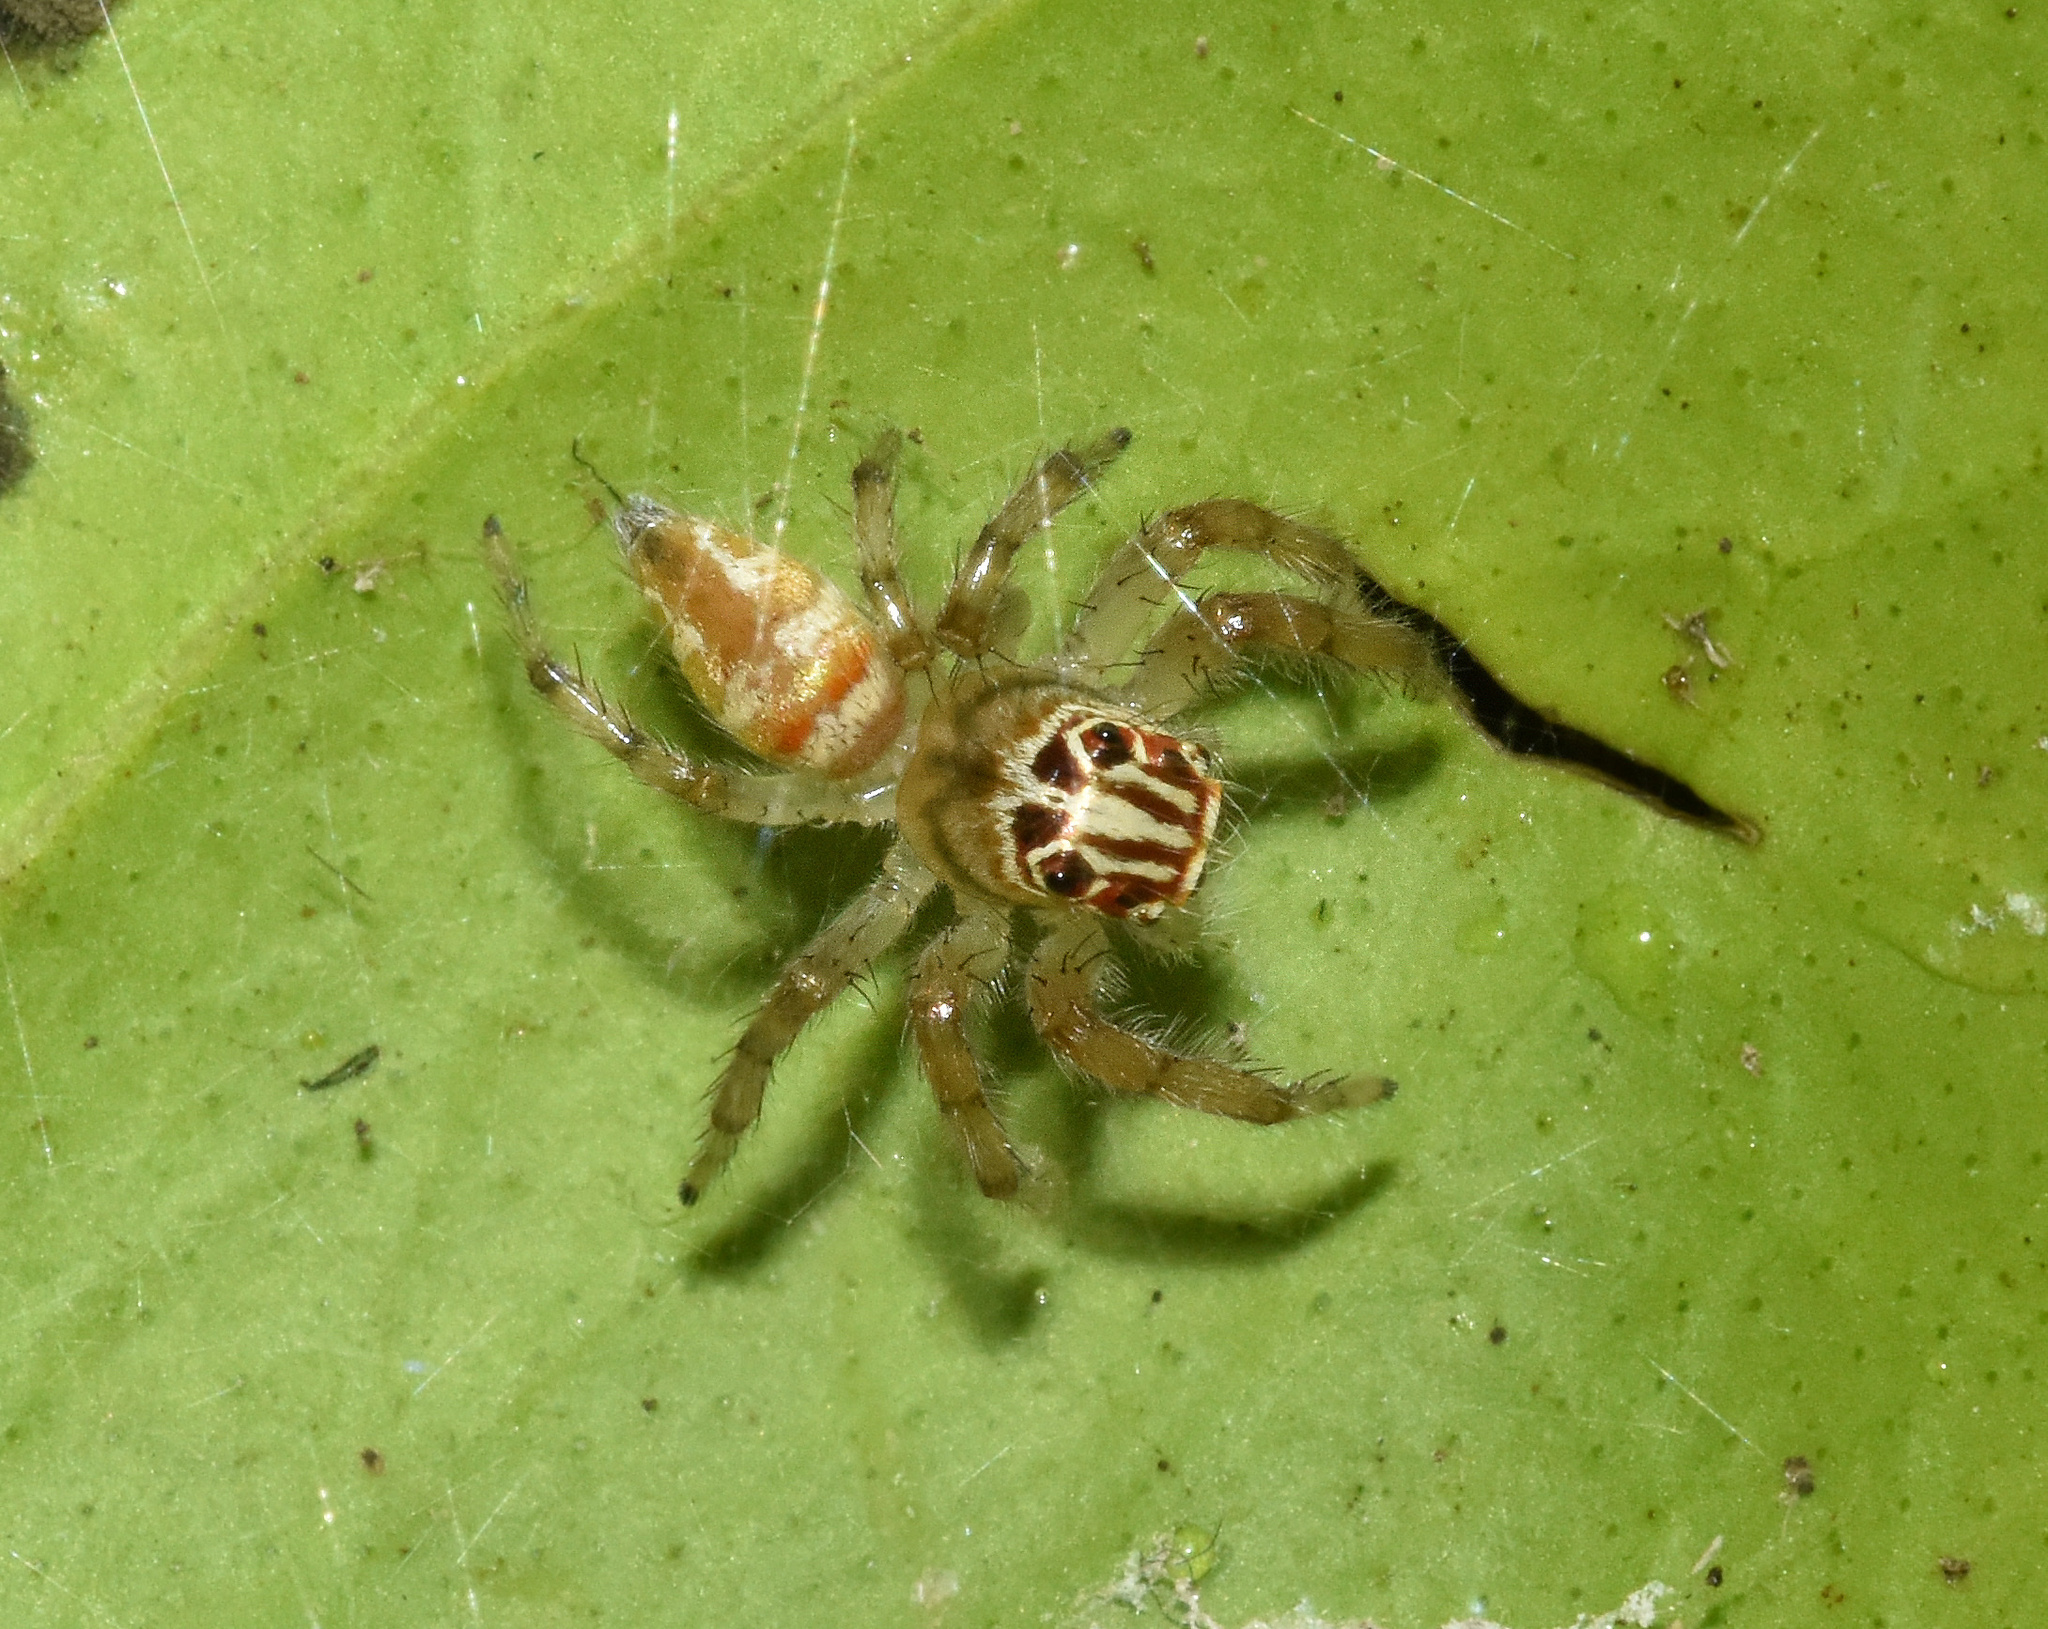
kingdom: Animalia
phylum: Arthropoda
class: Arachnida
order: Araneae
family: Salticidae
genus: Brancus
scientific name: Brancus mustelus
